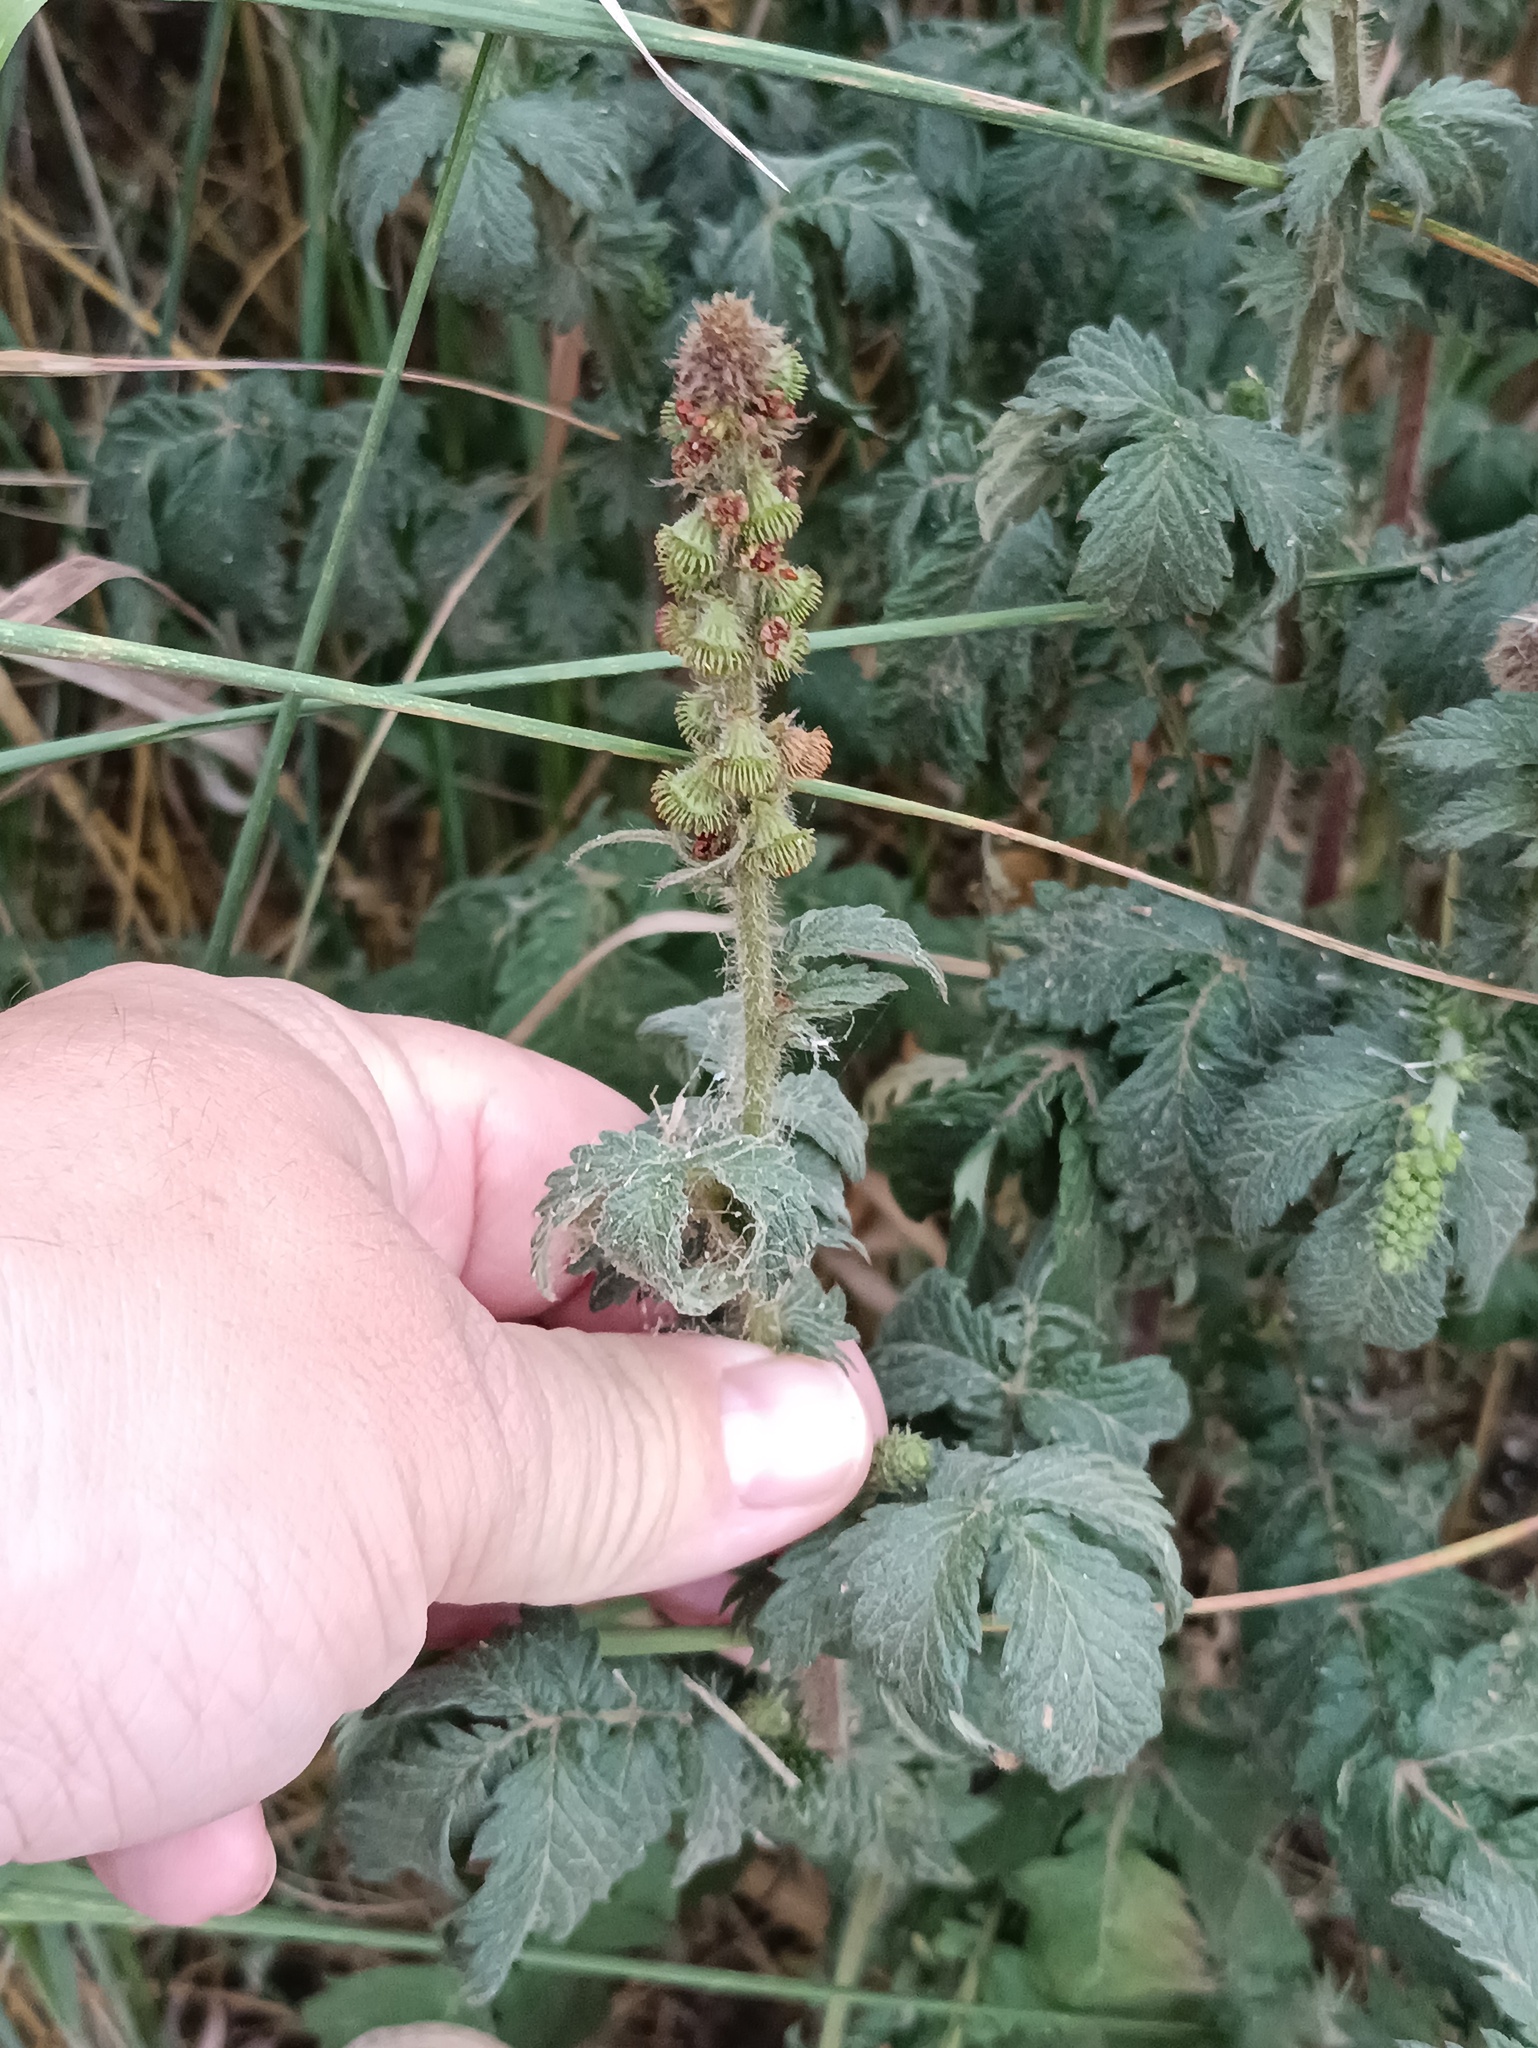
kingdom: Plantae
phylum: Tracheophyta
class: Magnoliopsida
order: Rosales
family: Rosaceae
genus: Agrimonia
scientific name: Agrimonia eupatoria
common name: Agrimony
